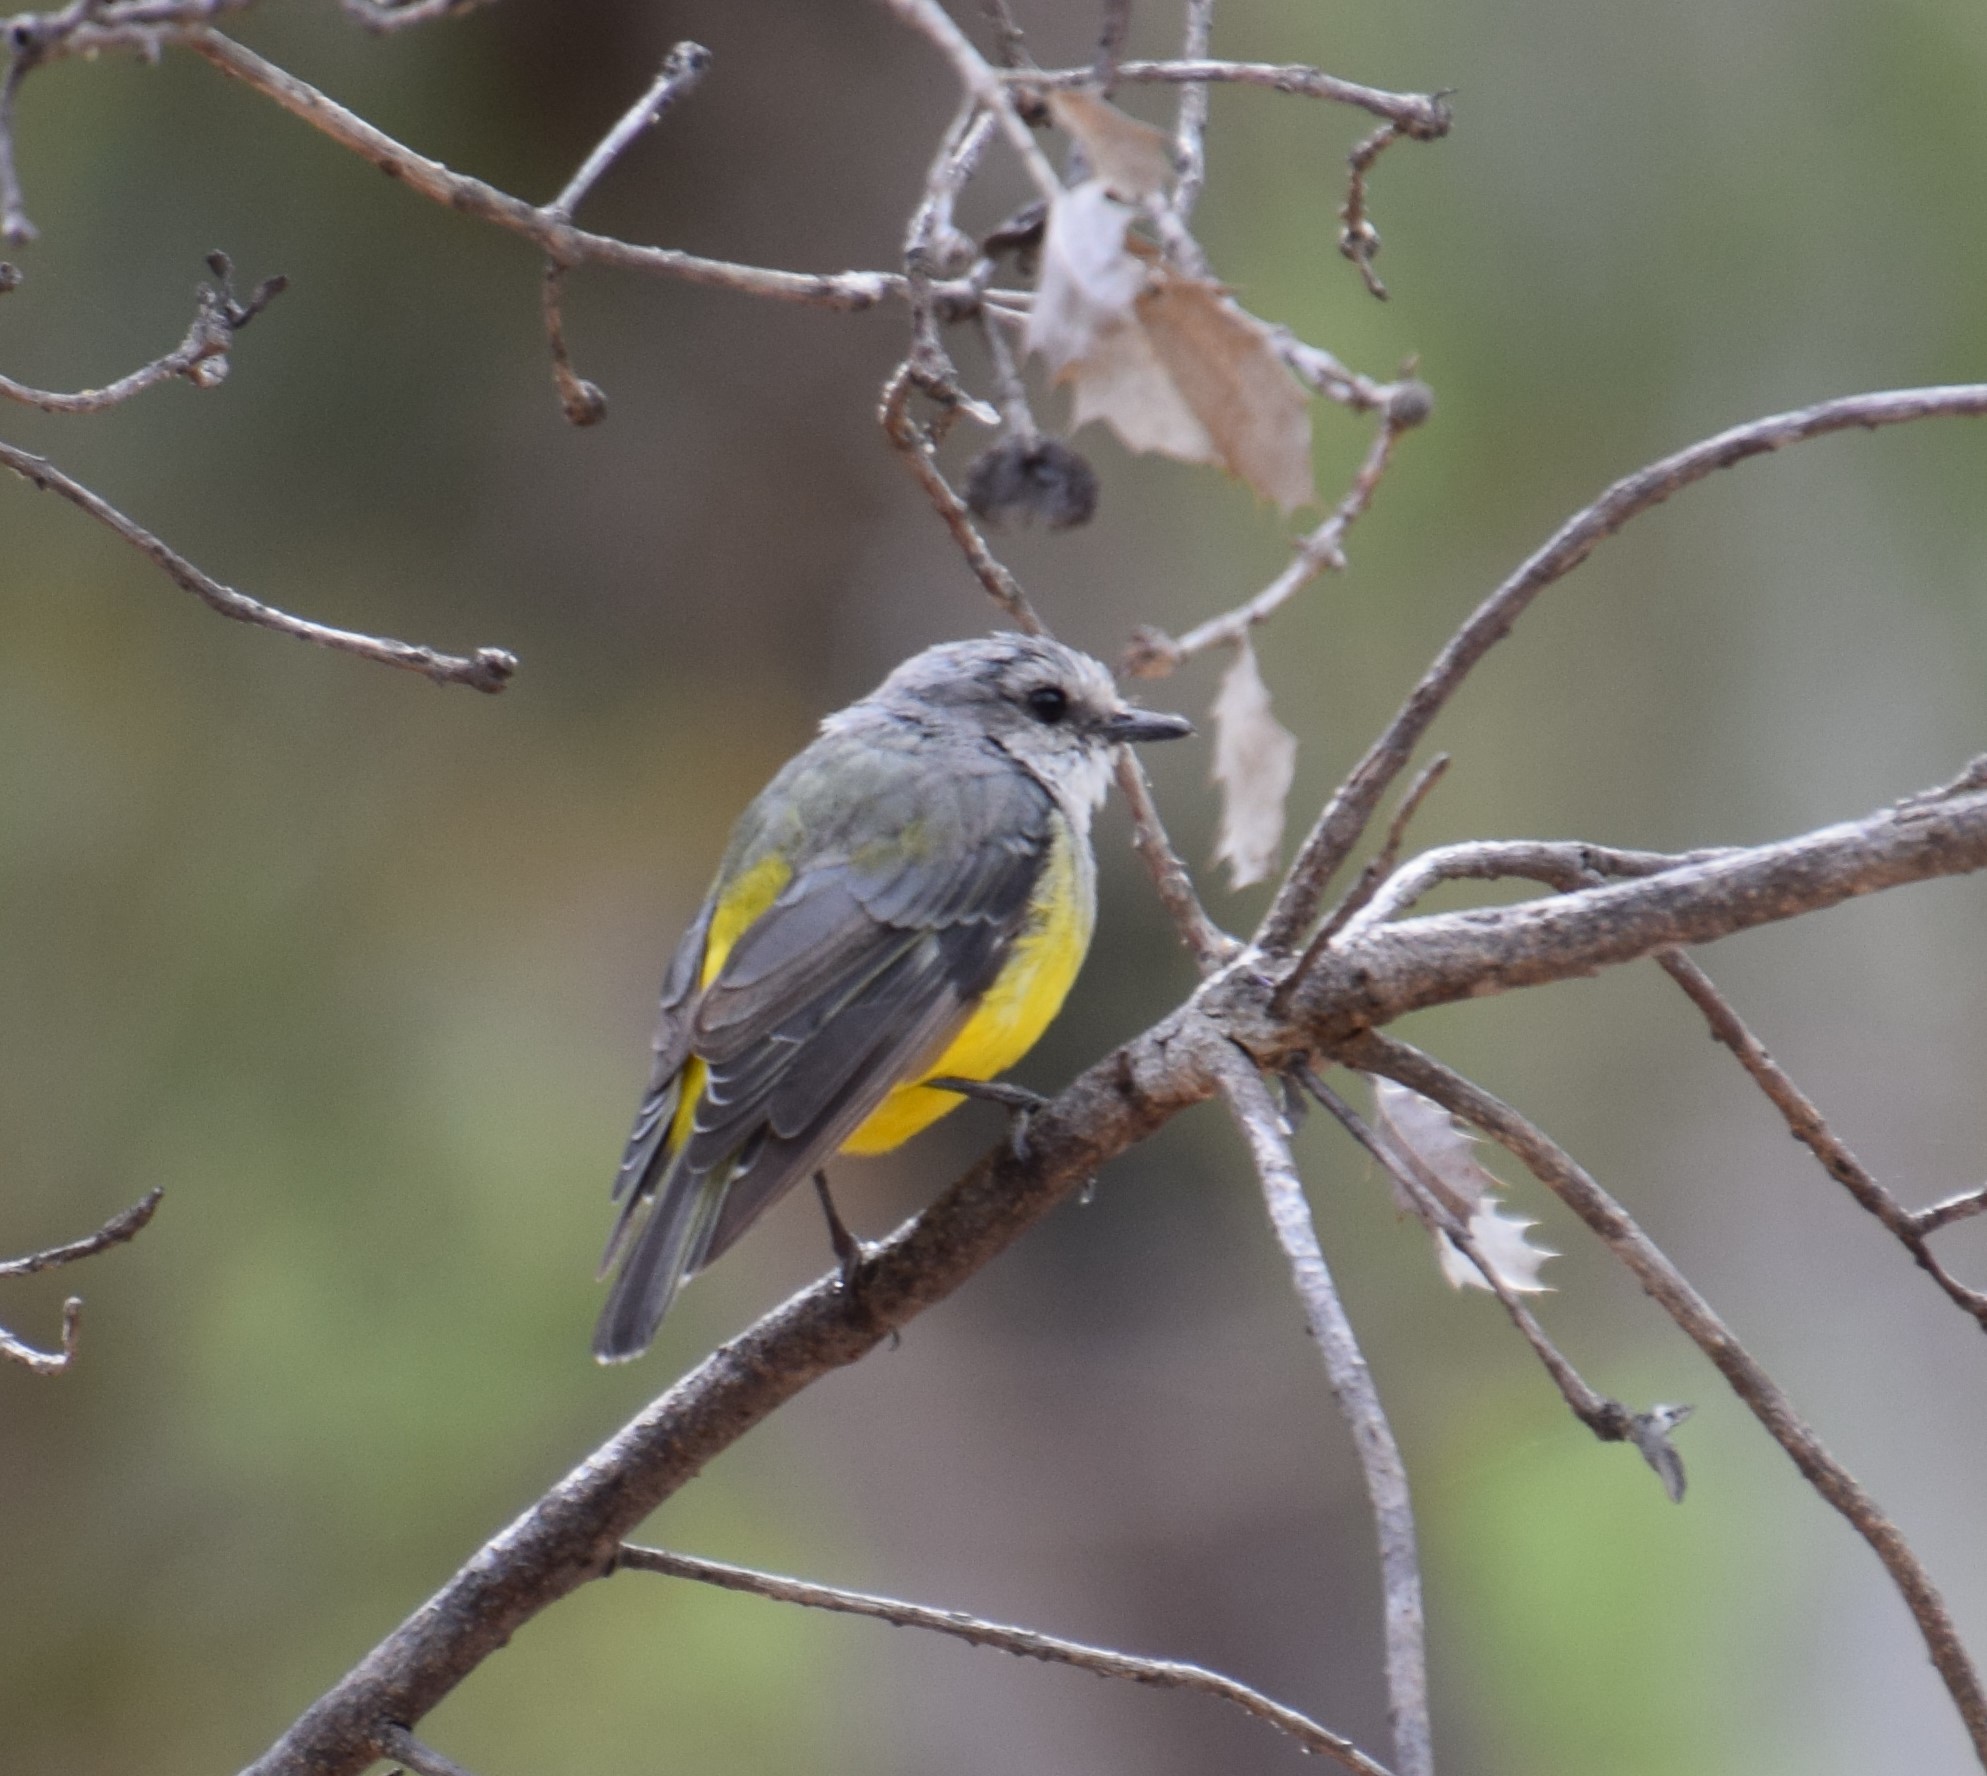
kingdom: Animalia
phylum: Chordata
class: Aves
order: Passeriformes
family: Petroicidae
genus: Eopsaltria
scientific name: Eopsaltria griseogularis
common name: Western yellow robin
